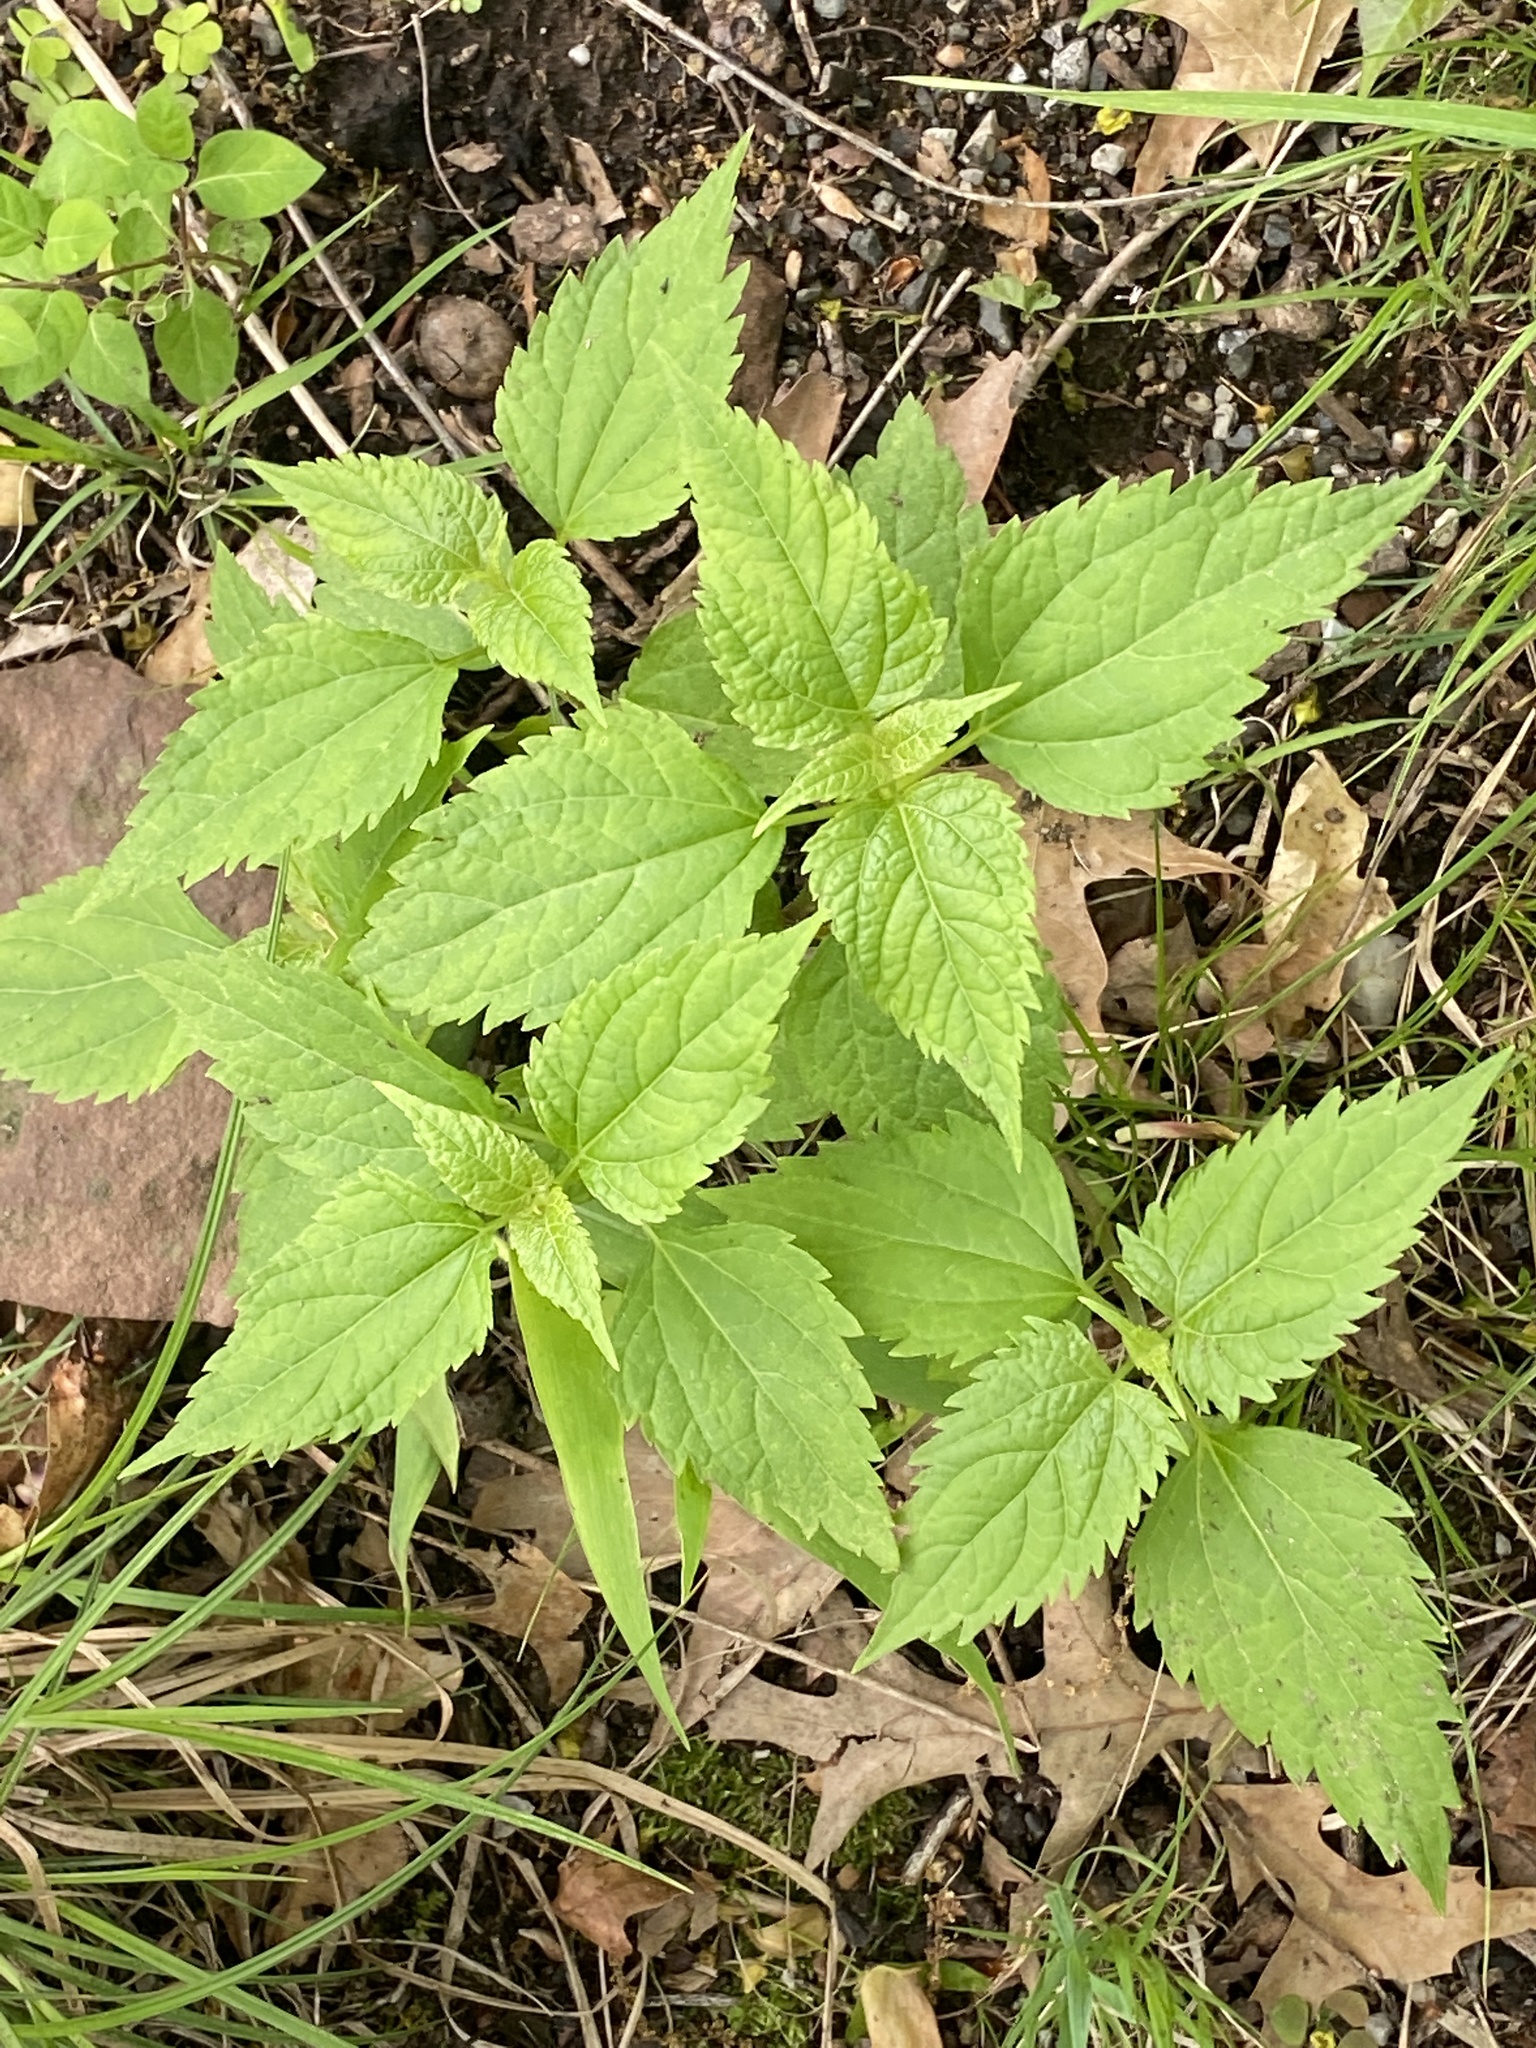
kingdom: Plantae
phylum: Tracheophyta
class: Magnoliopsida
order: Asterales
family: Asteraceae
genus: Ageratina
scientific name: Ageratina altissima
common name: White snakeroot
